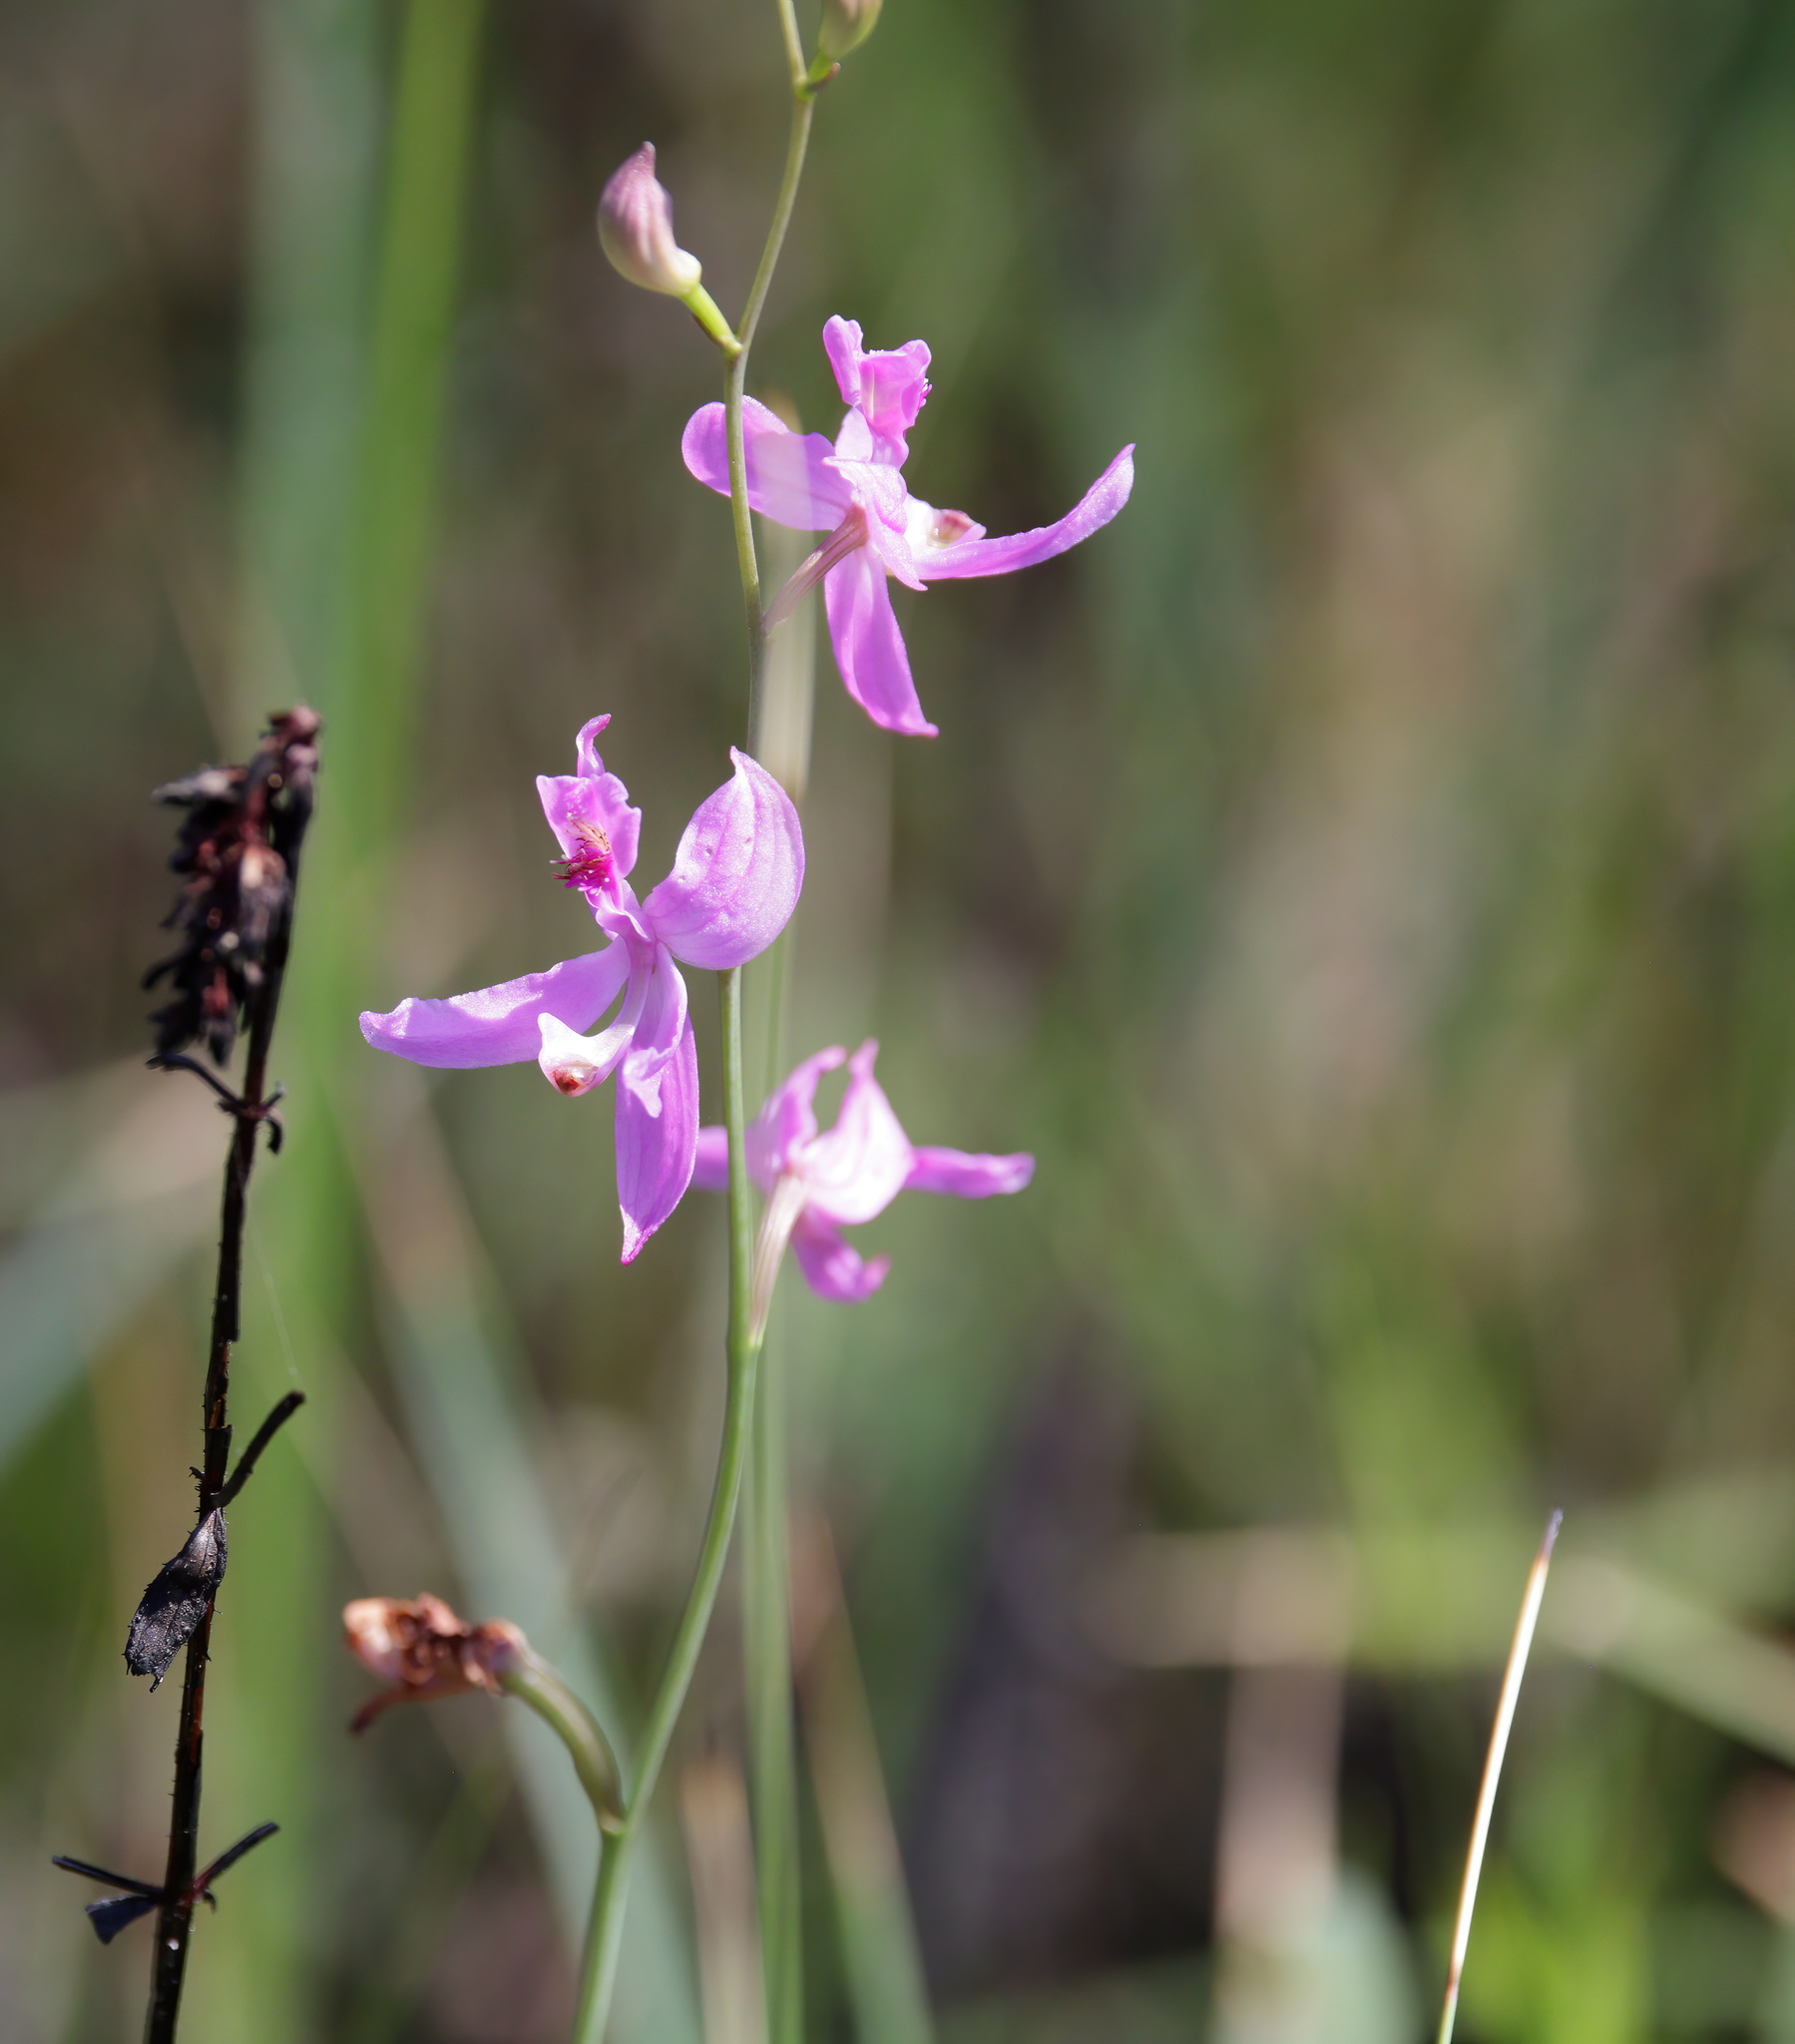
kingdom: Plantae
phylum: Tracheophyta
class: Liliopsida
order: Asparagales
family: Orchidaceae
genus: Calopogon
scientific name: Calopogon pallidus
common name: Pale grasspink
